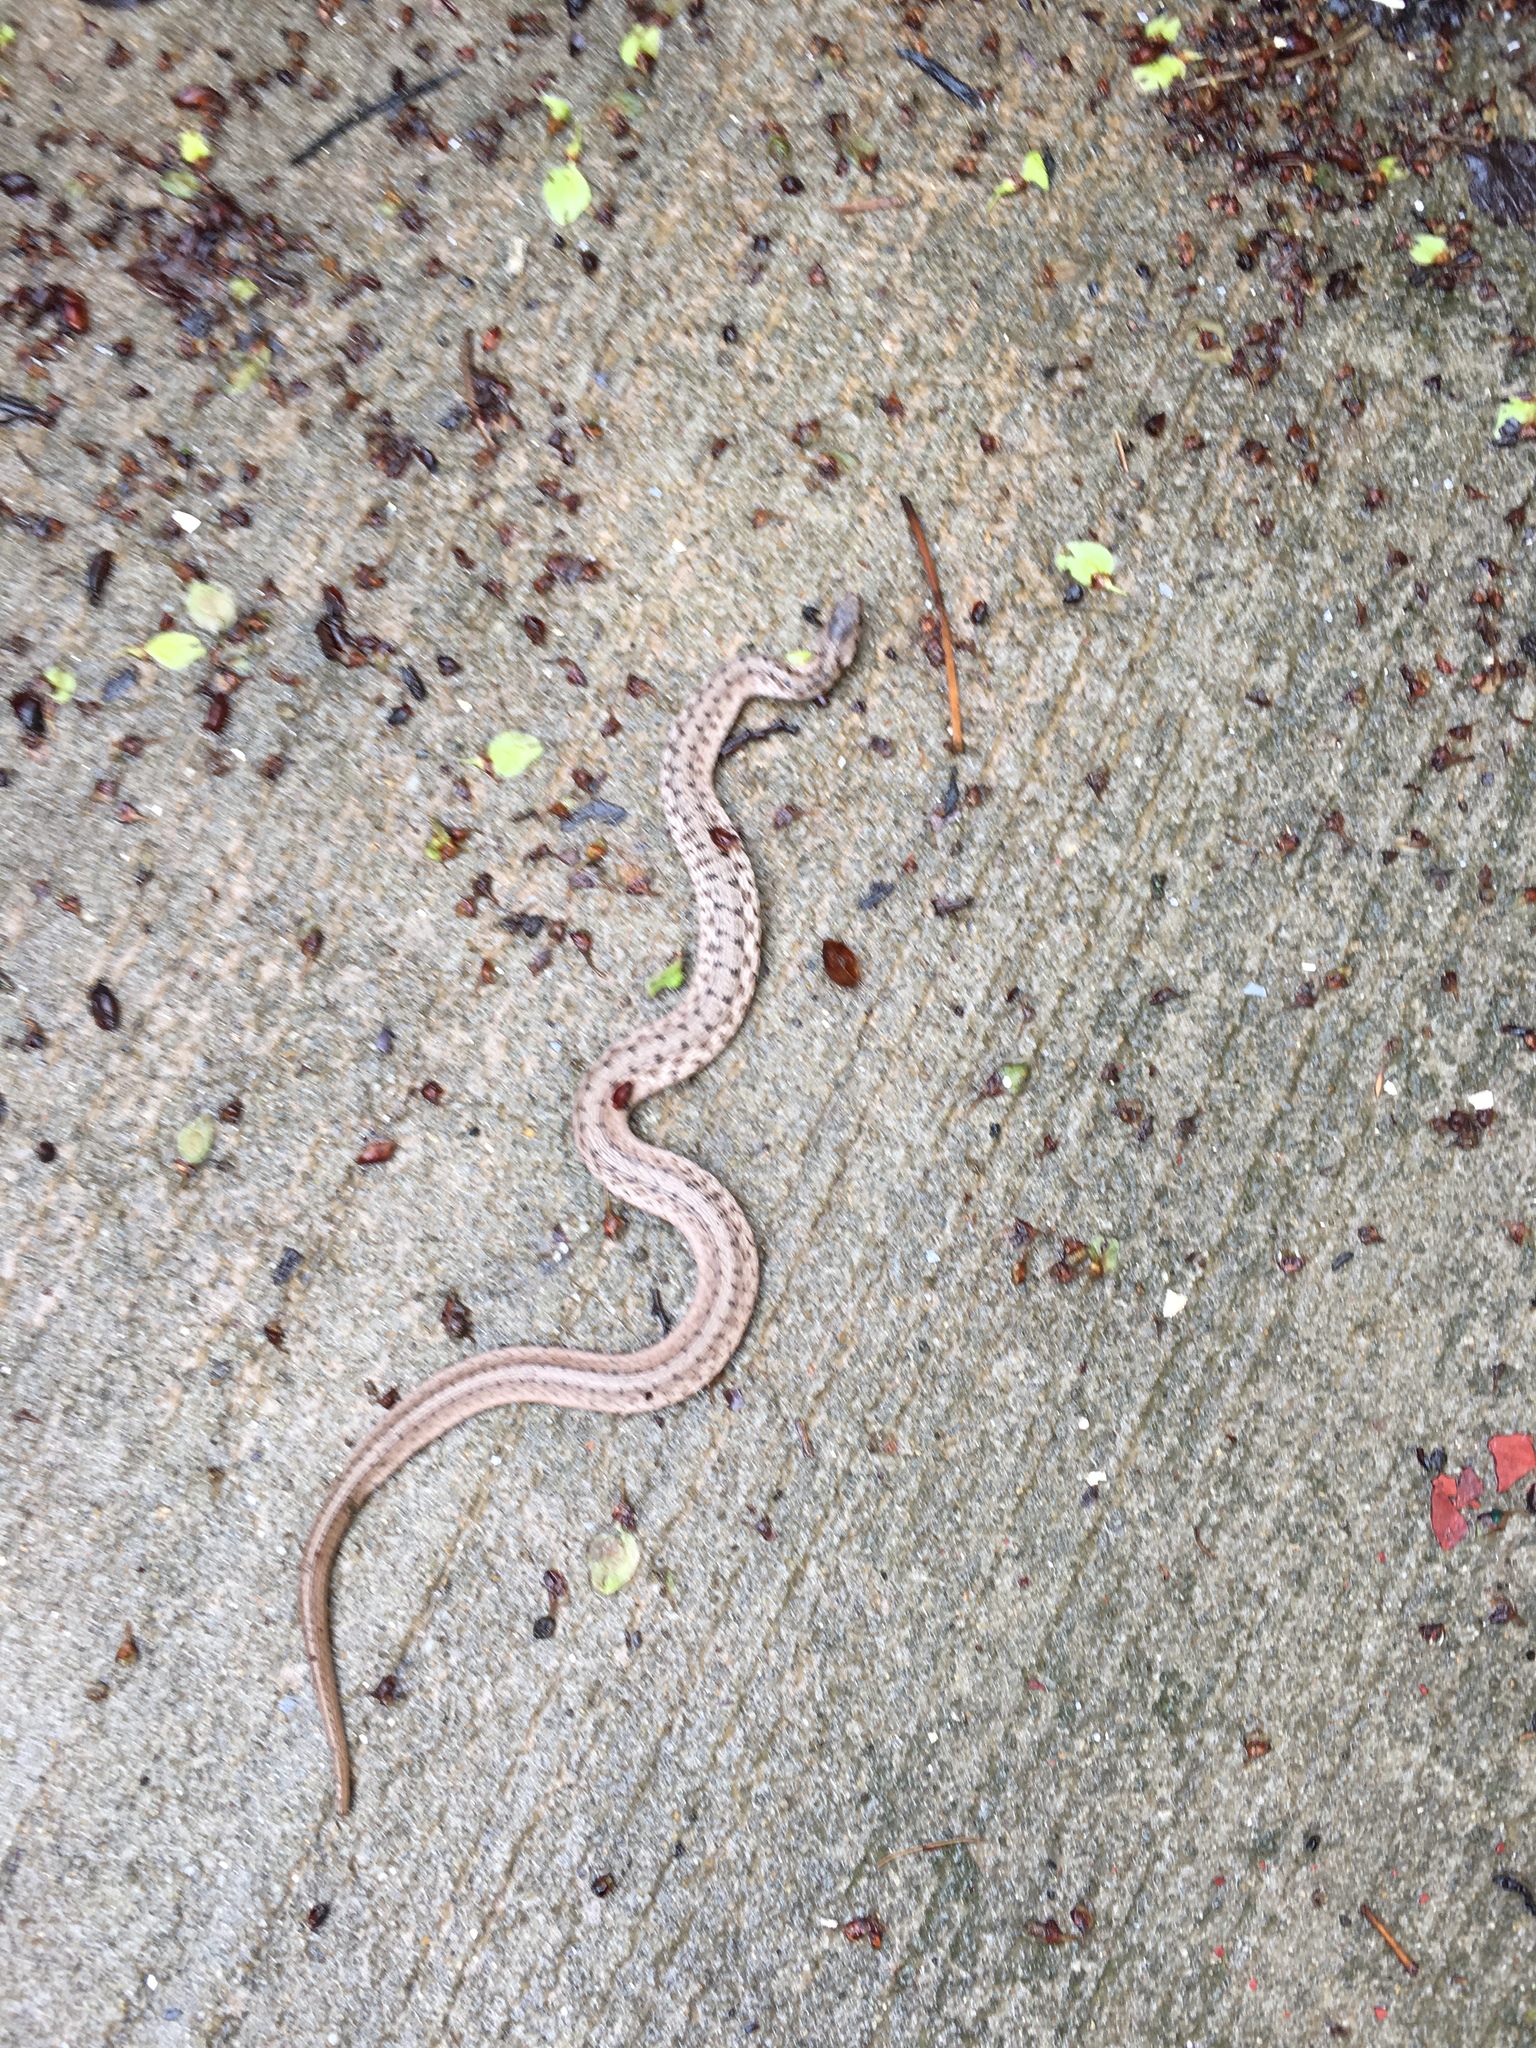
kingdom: Animalia
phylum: Chordata
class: Squamata
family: Colubridae
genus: Storeria
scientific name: Storeria dekayi
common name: (dekay’s) brown snake
